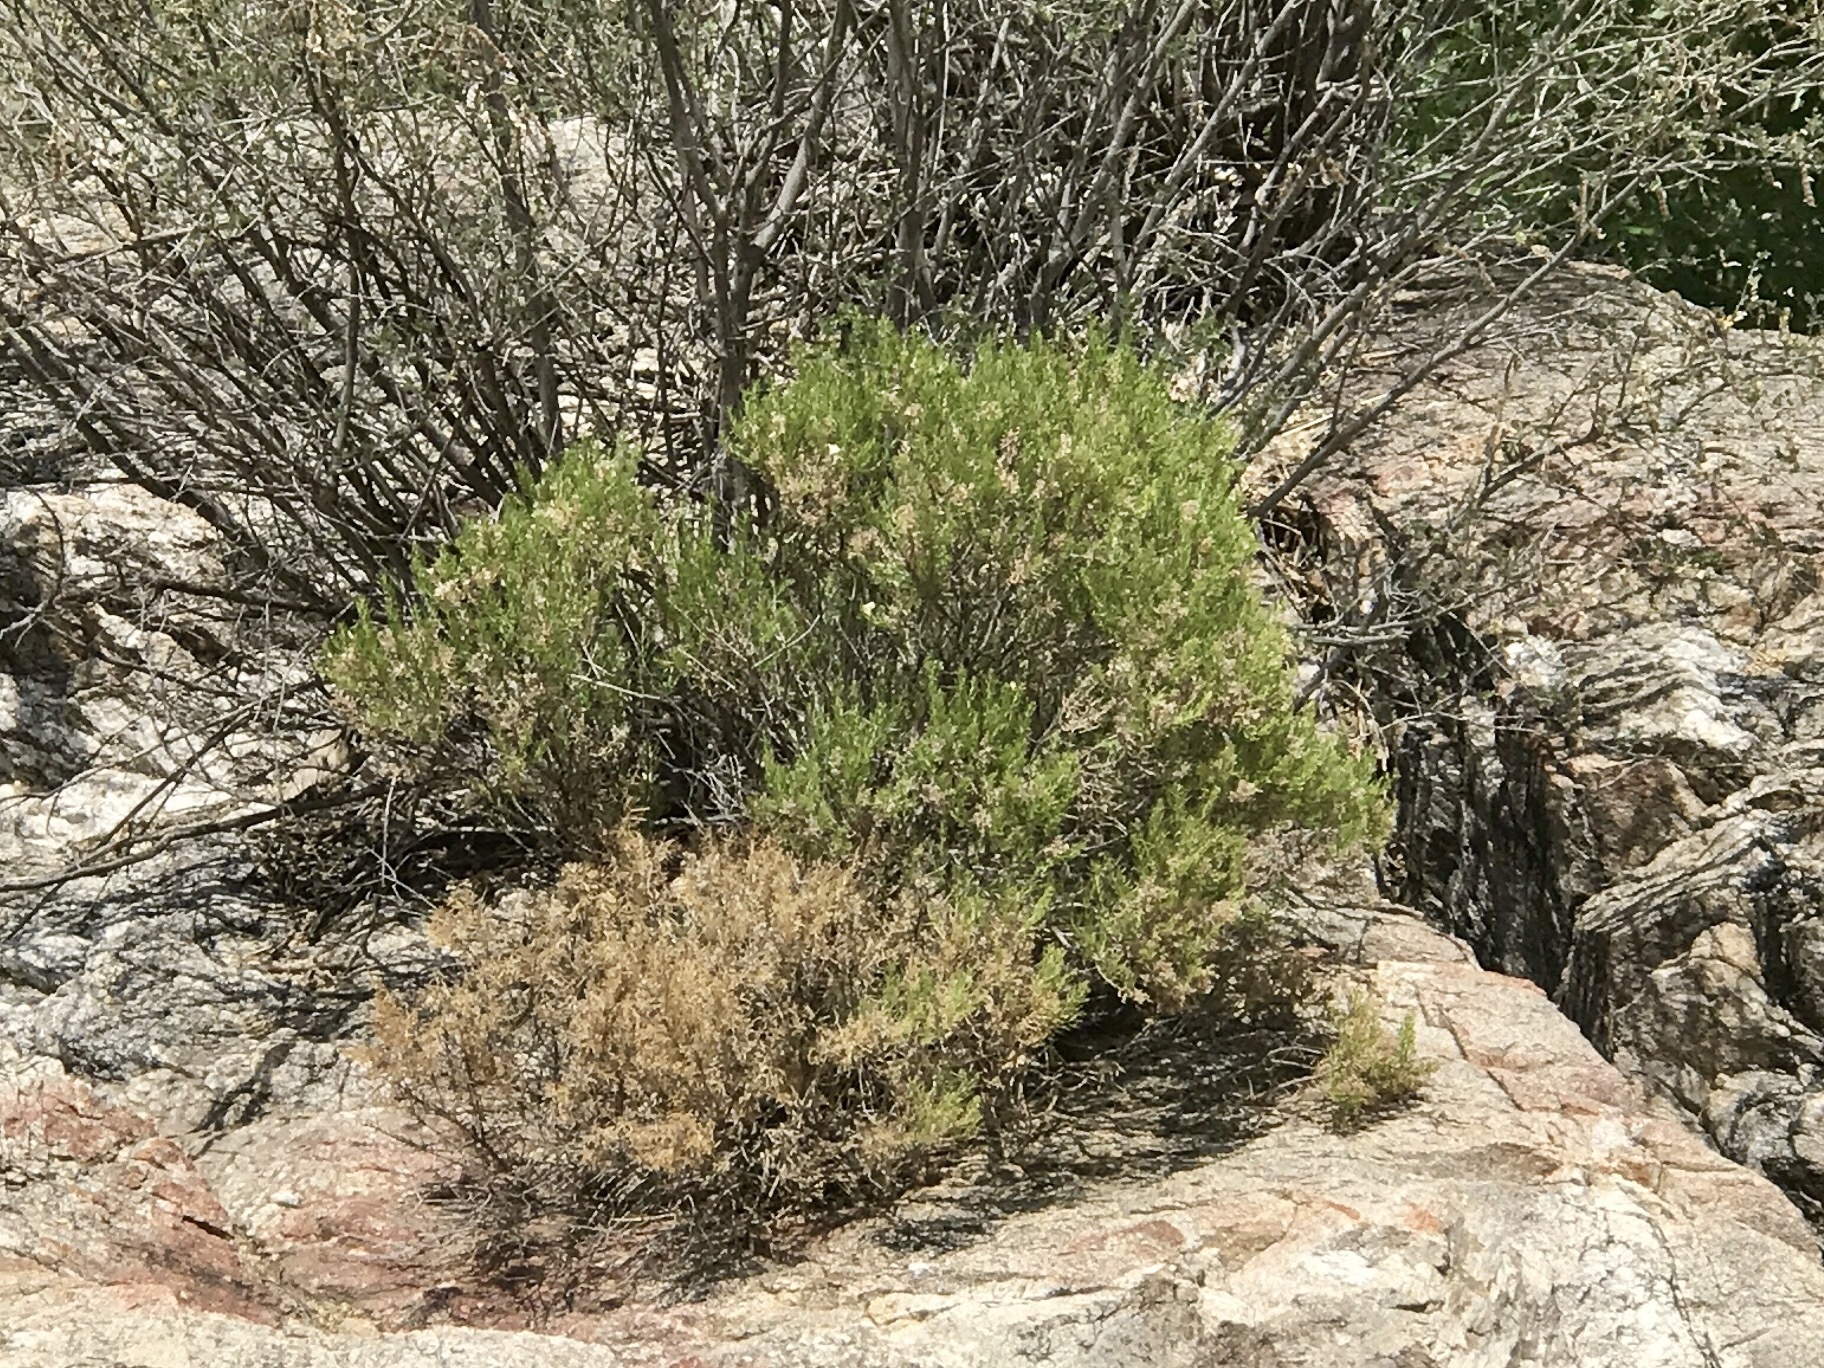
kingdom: Plantae
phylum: Tracheophyta
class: Magnoliopsida
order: Asterales
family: Asteraceae
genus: Ericameria
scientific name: Ericameria laricifolia
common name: Turpentine-bush
